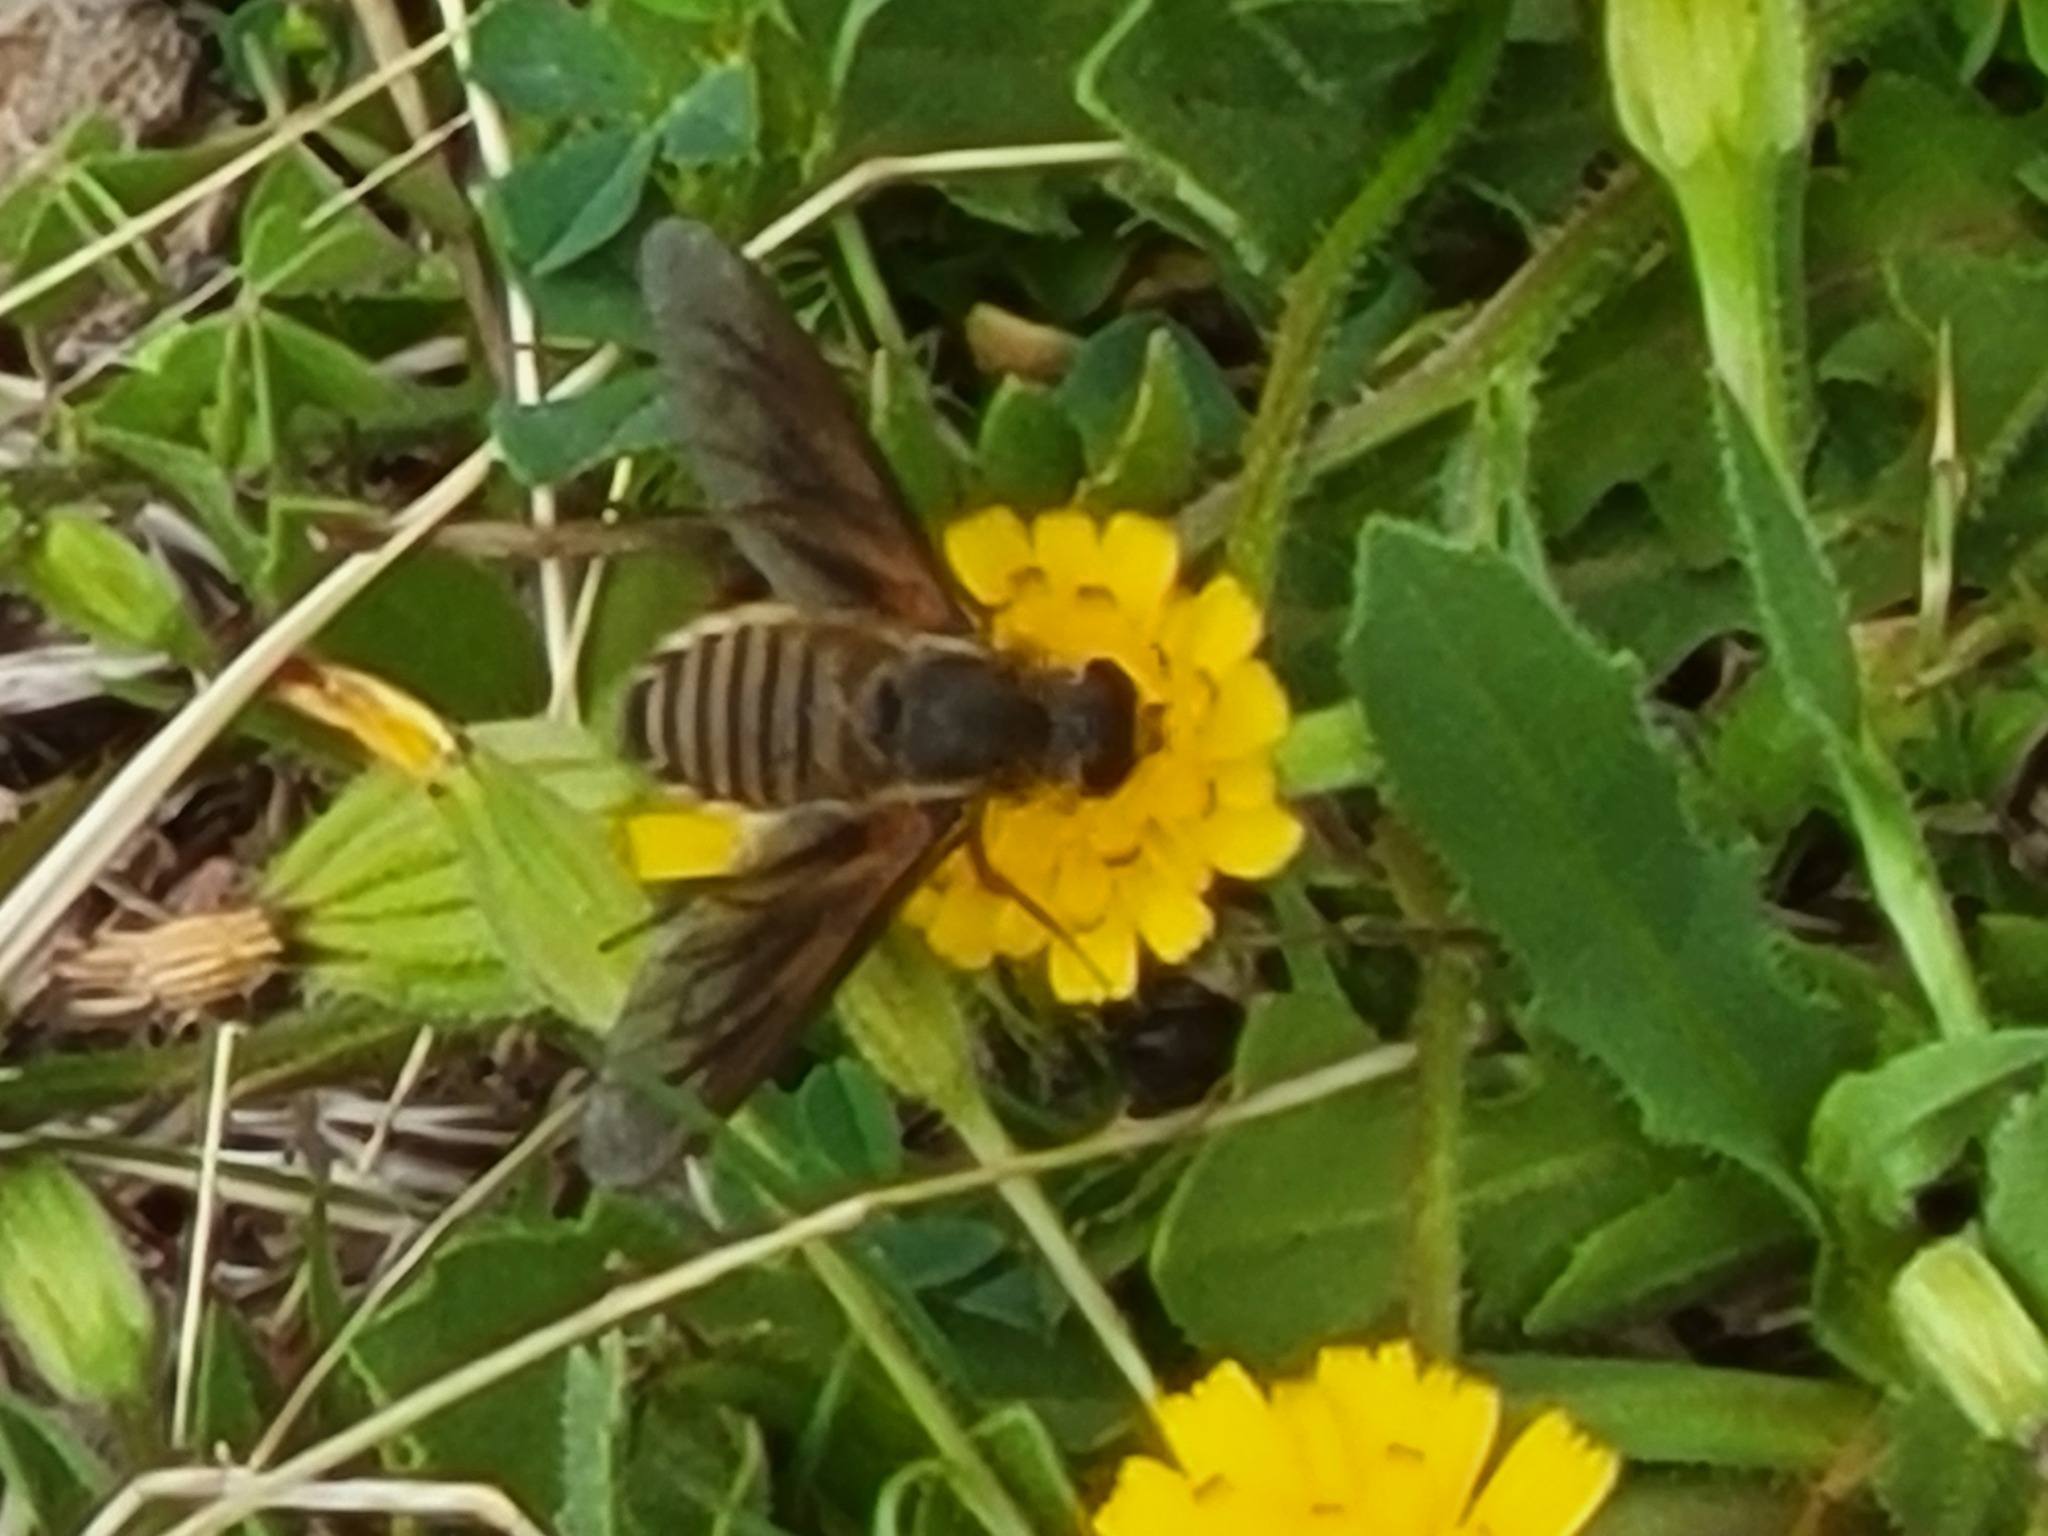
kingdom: Animalia
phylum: Arthropoda
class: Insecta
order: Diptera
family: Bombyliidae
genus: Poecilanthrax
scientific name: Poecilanthrax lucifer
